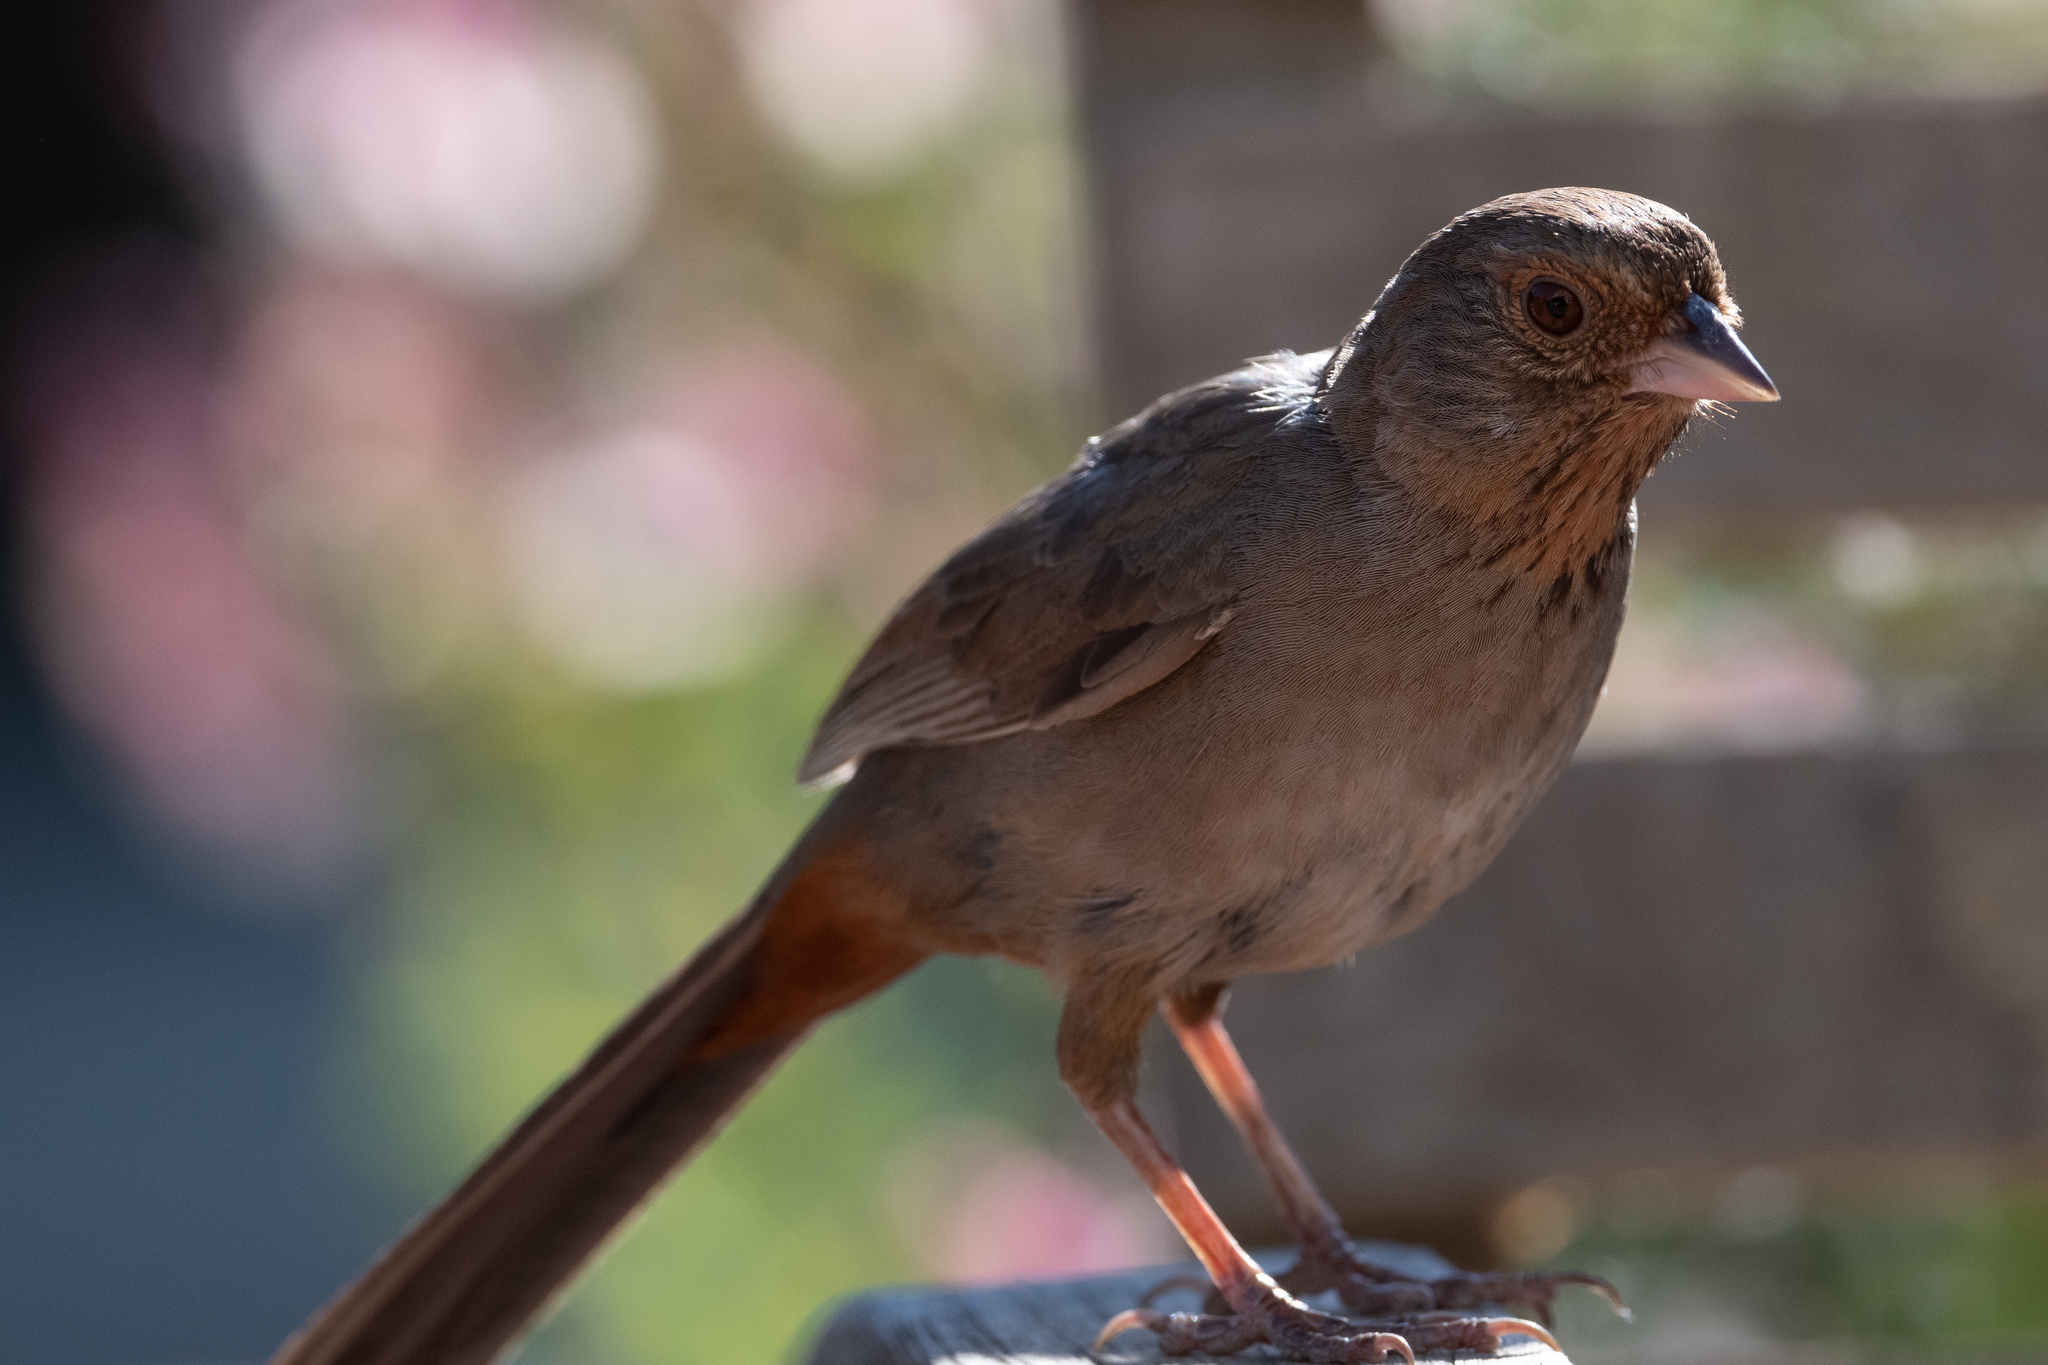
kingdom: Animalia
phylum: Chordata
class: Aves
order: Passeriformes
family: Passerellidae
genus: Melozone
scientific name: Melozone crissalis
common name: California towhee
